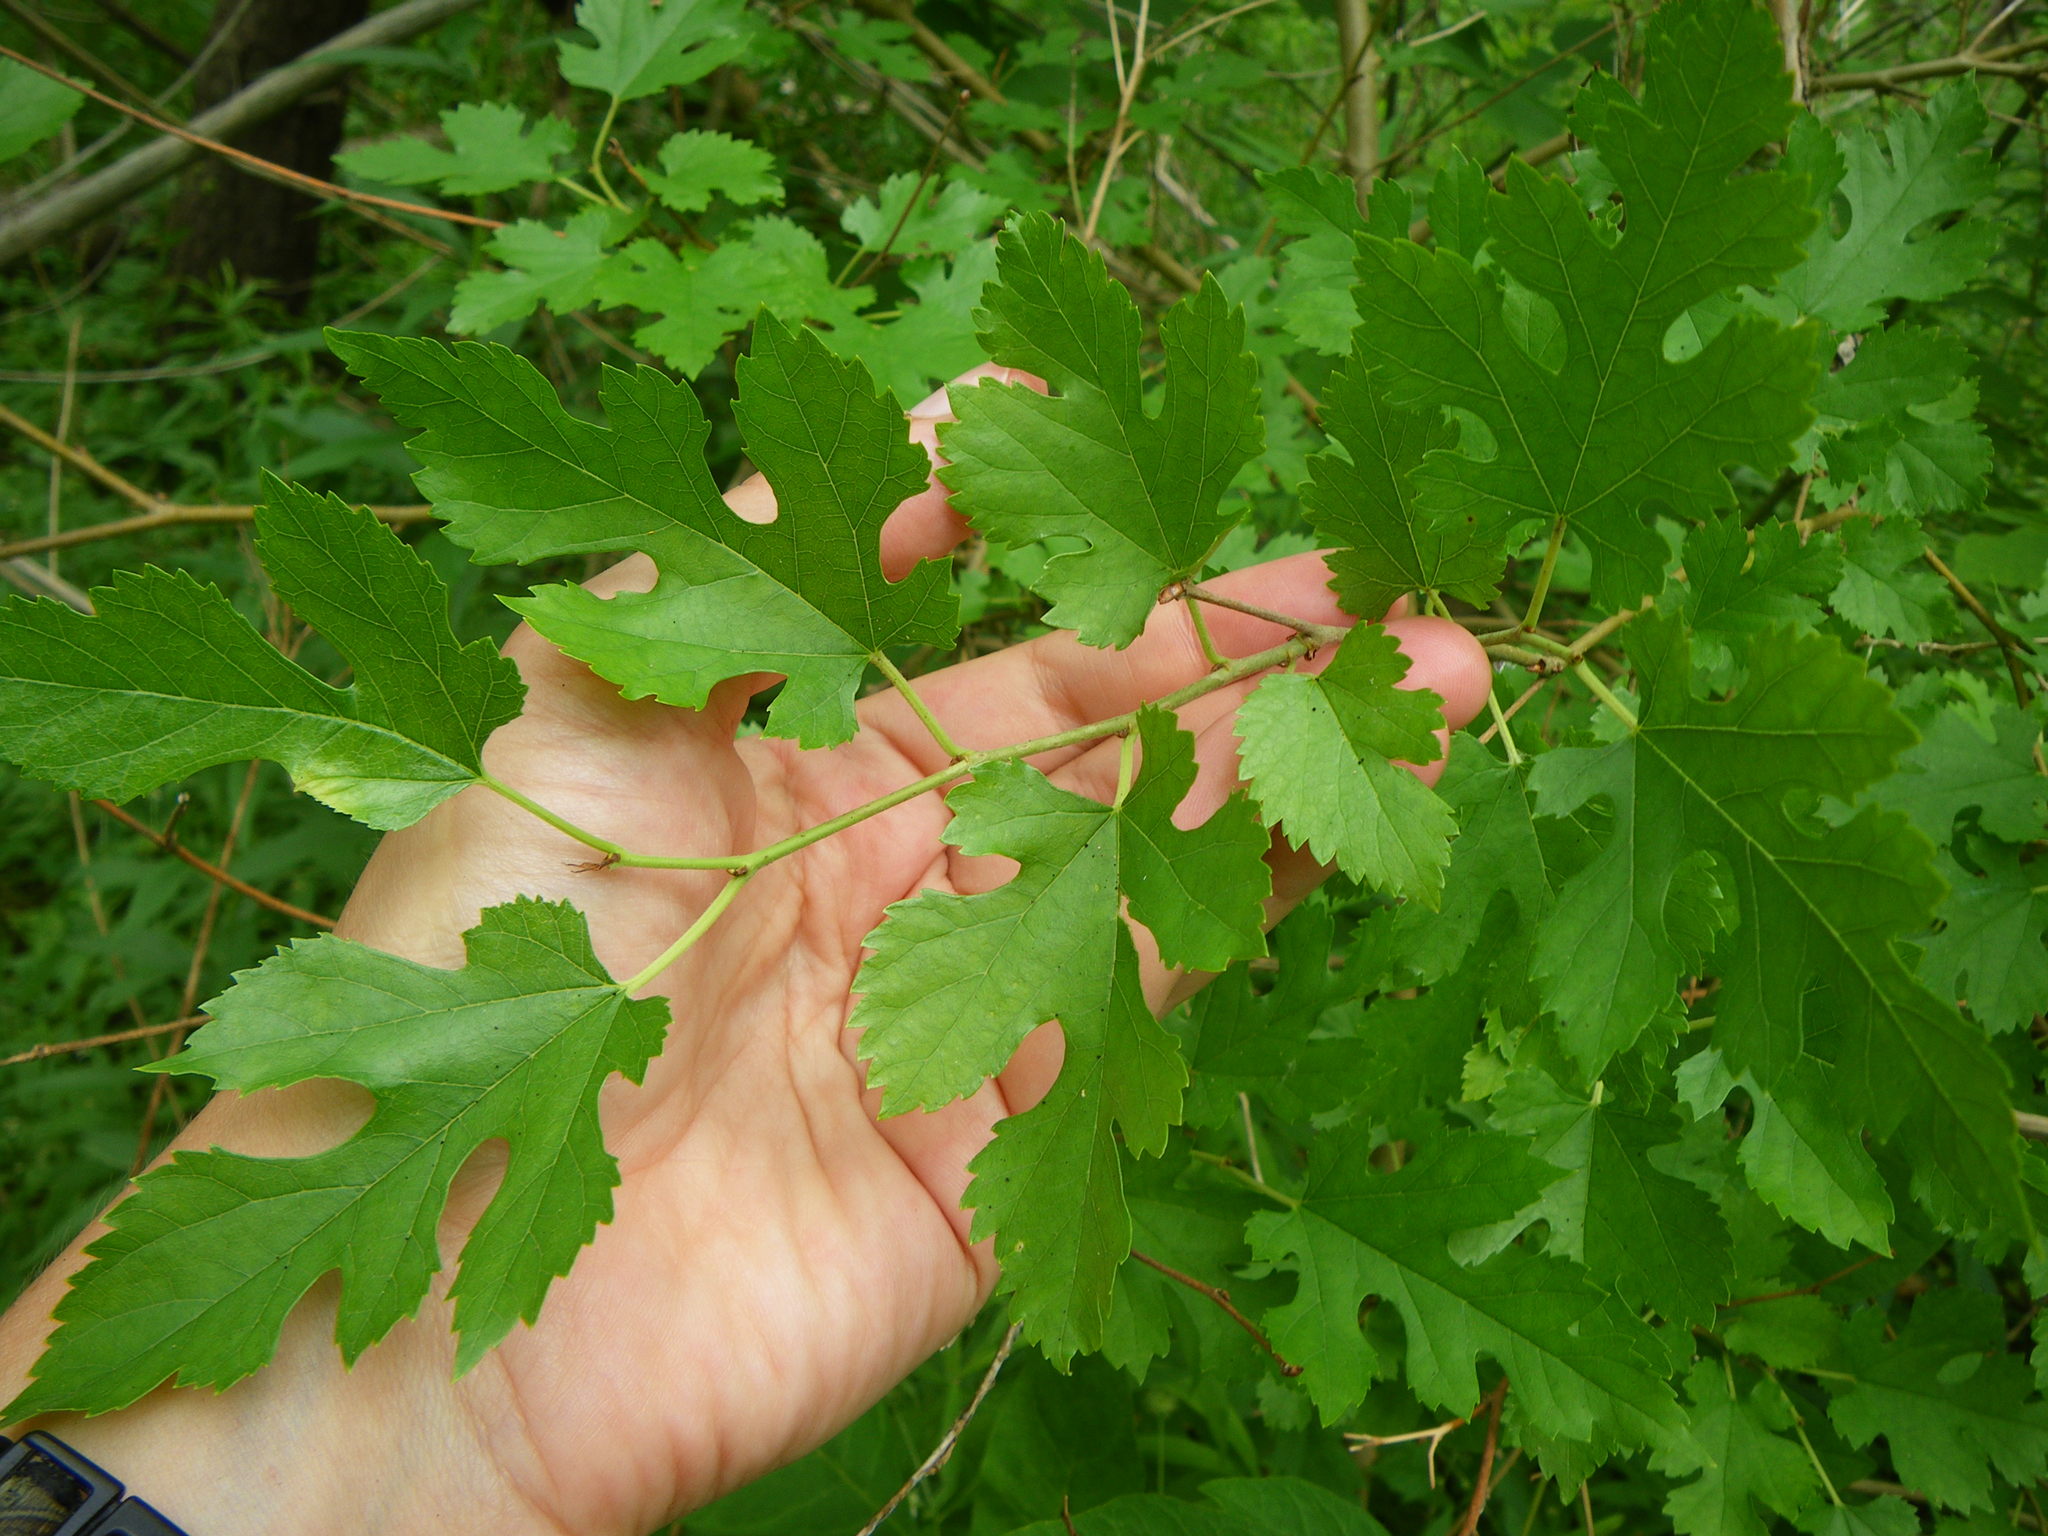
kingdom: Plantae
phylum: Tracheophyta
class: Magnoliopsida
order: Rosales
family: Moraceae
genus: Morus
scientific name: Morus alba
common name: White mulberry
